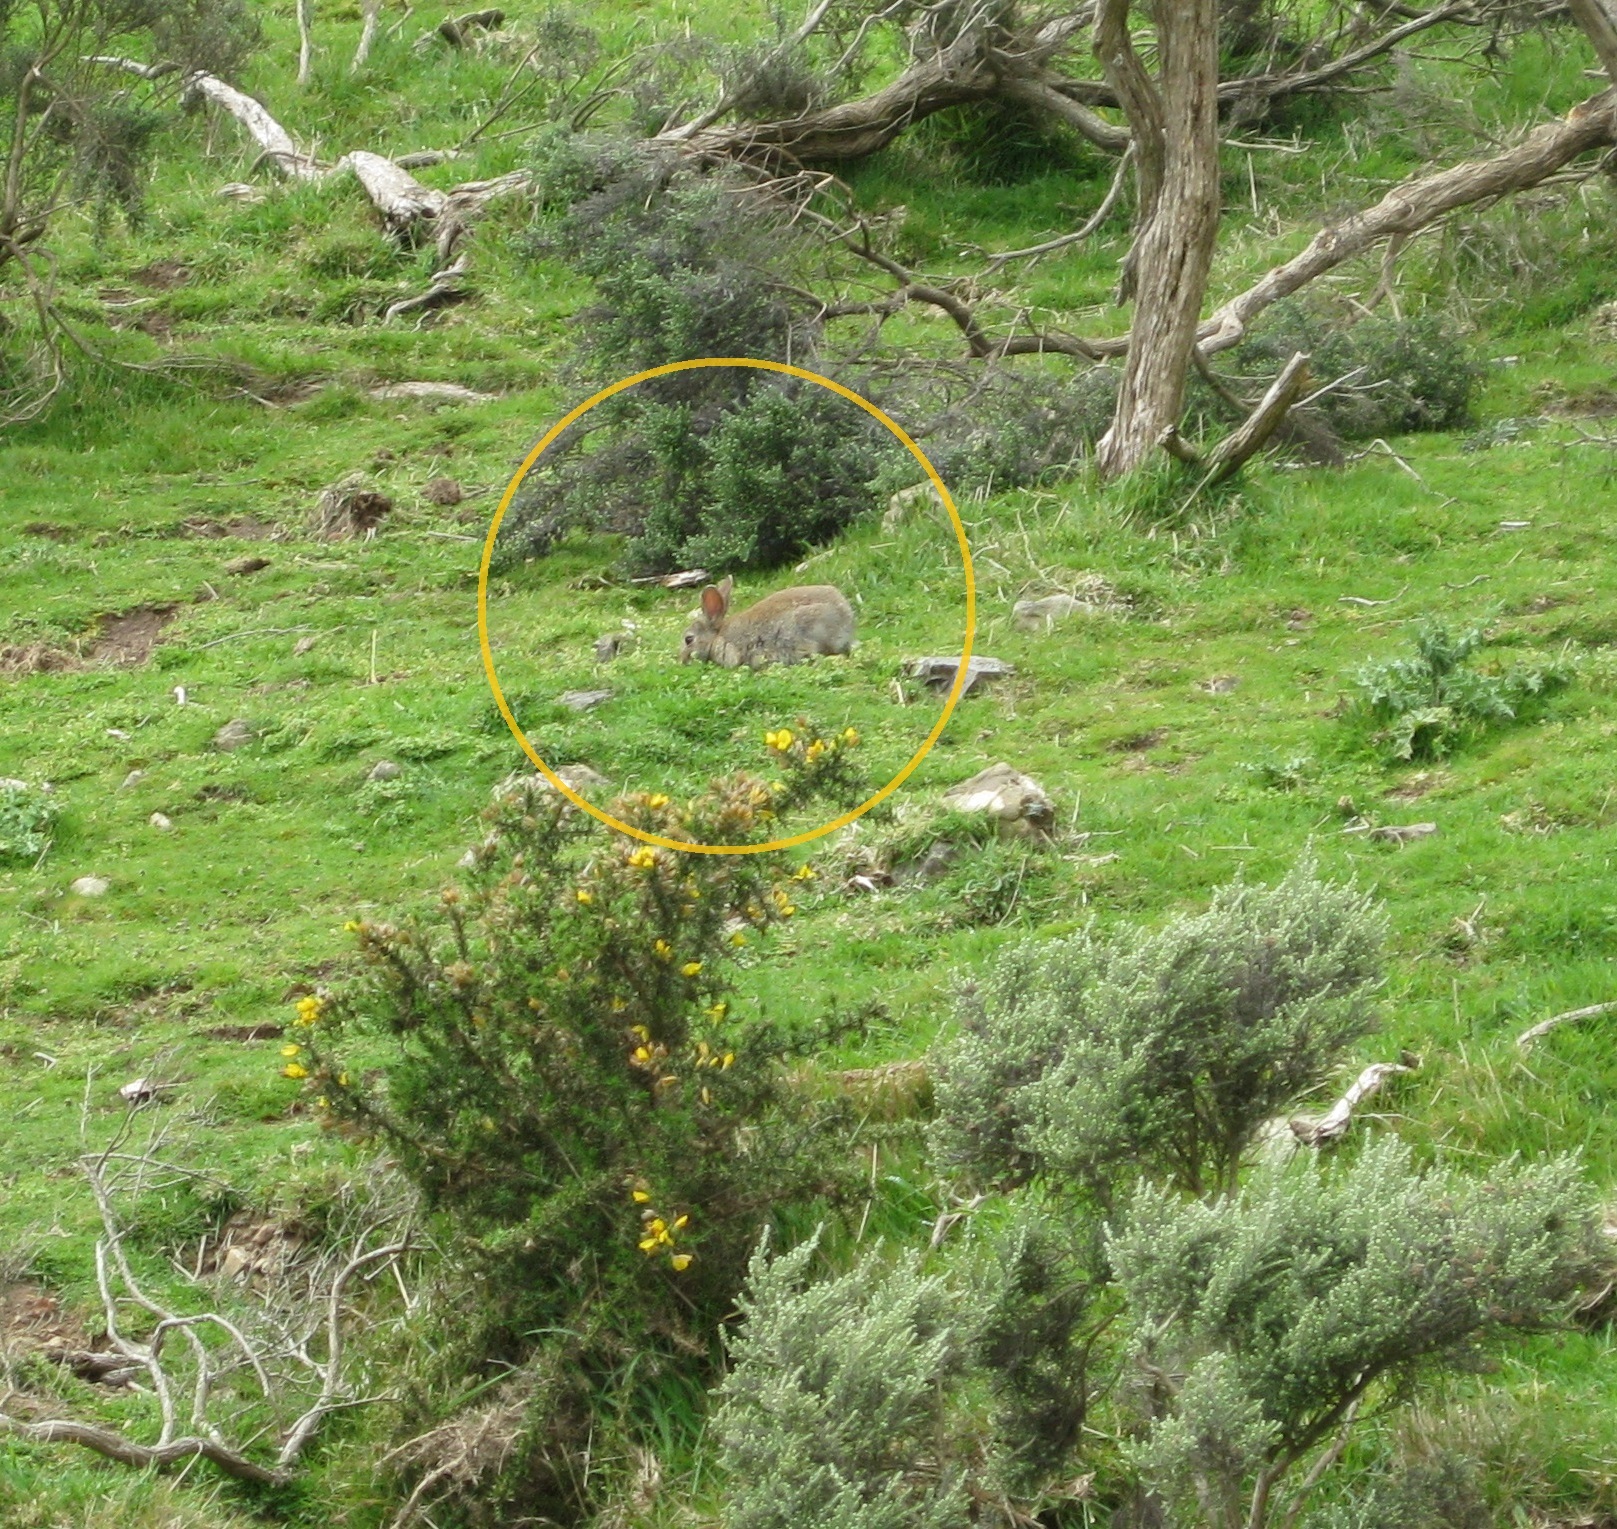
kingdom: Animalia
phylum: Chordata
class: Mammalia
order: Lagomorpha
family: Leporidae
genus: Oryctolagus
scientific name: Oryctolagus cuniculus
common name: European rabbit
